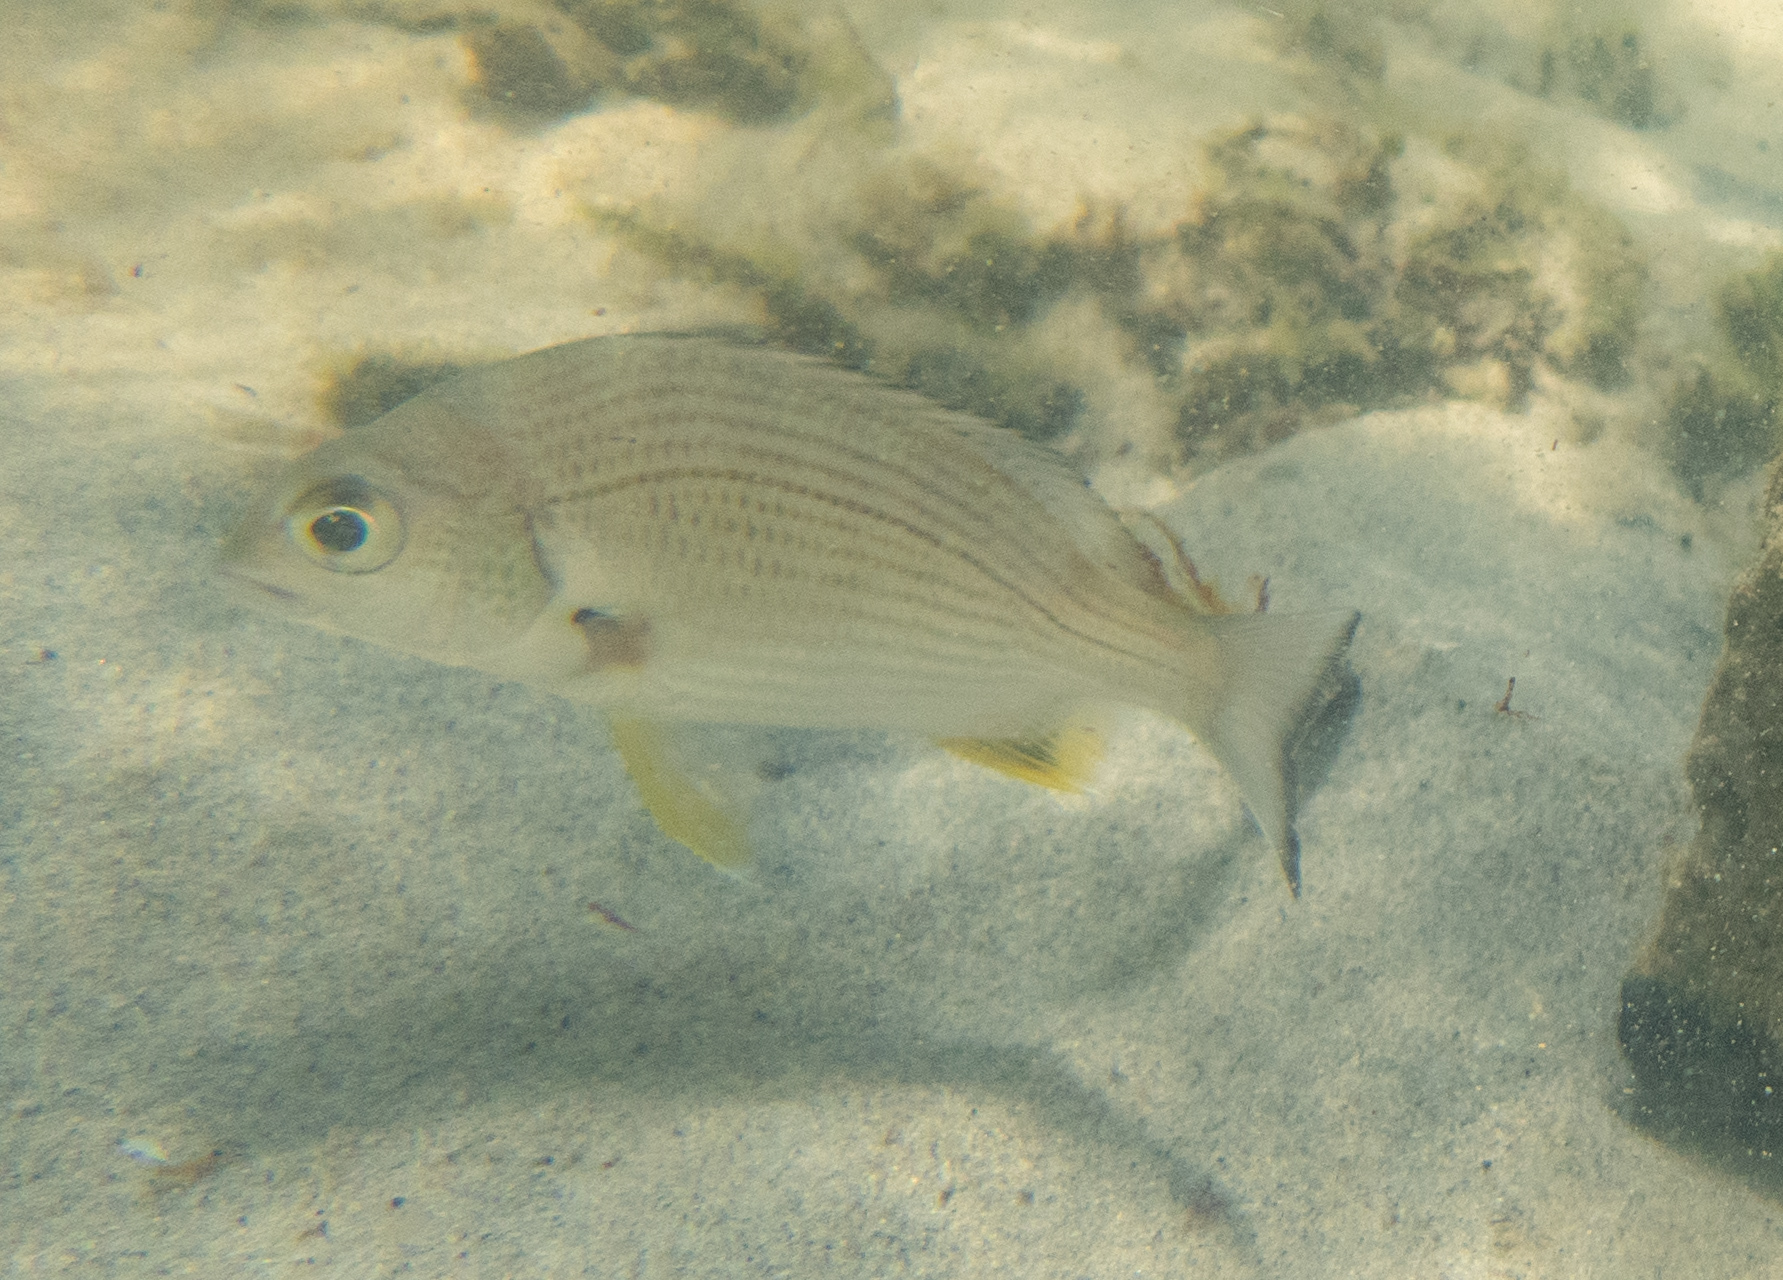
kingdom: Animalia
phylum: Chordata
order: Perciformes
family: Sparidae
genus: Acanthopagrus
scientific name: Acanthopagrus australis
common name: Surf bream
